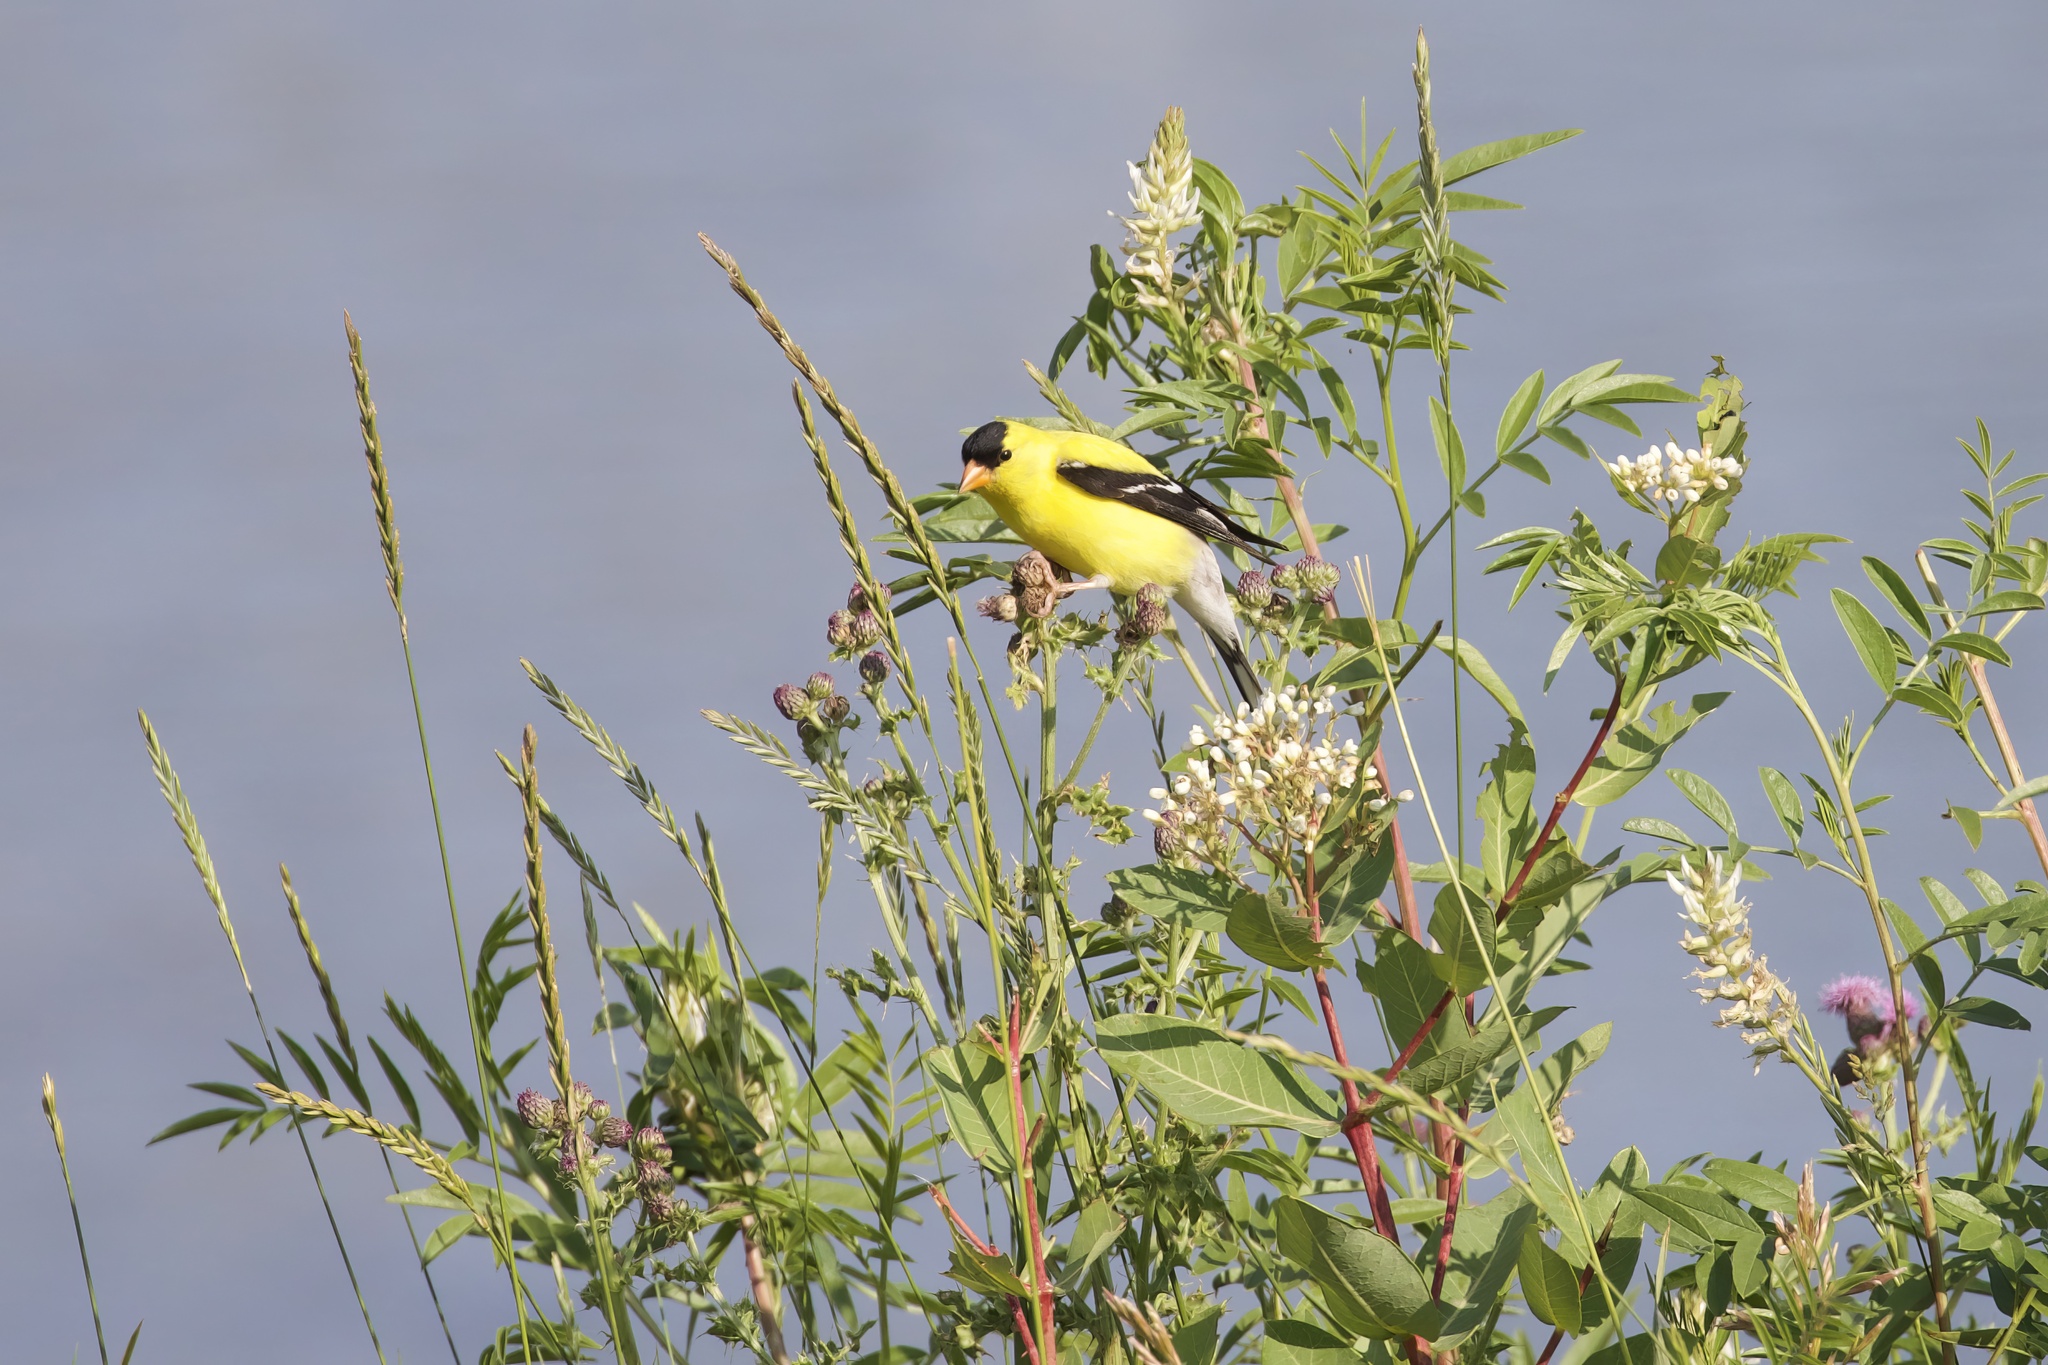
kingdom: Animalia
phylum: Chordata
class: Aves
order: Passeriformes
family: Fringillidae
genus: Spinus
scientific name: Spinus tristis
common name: American goldfinch
